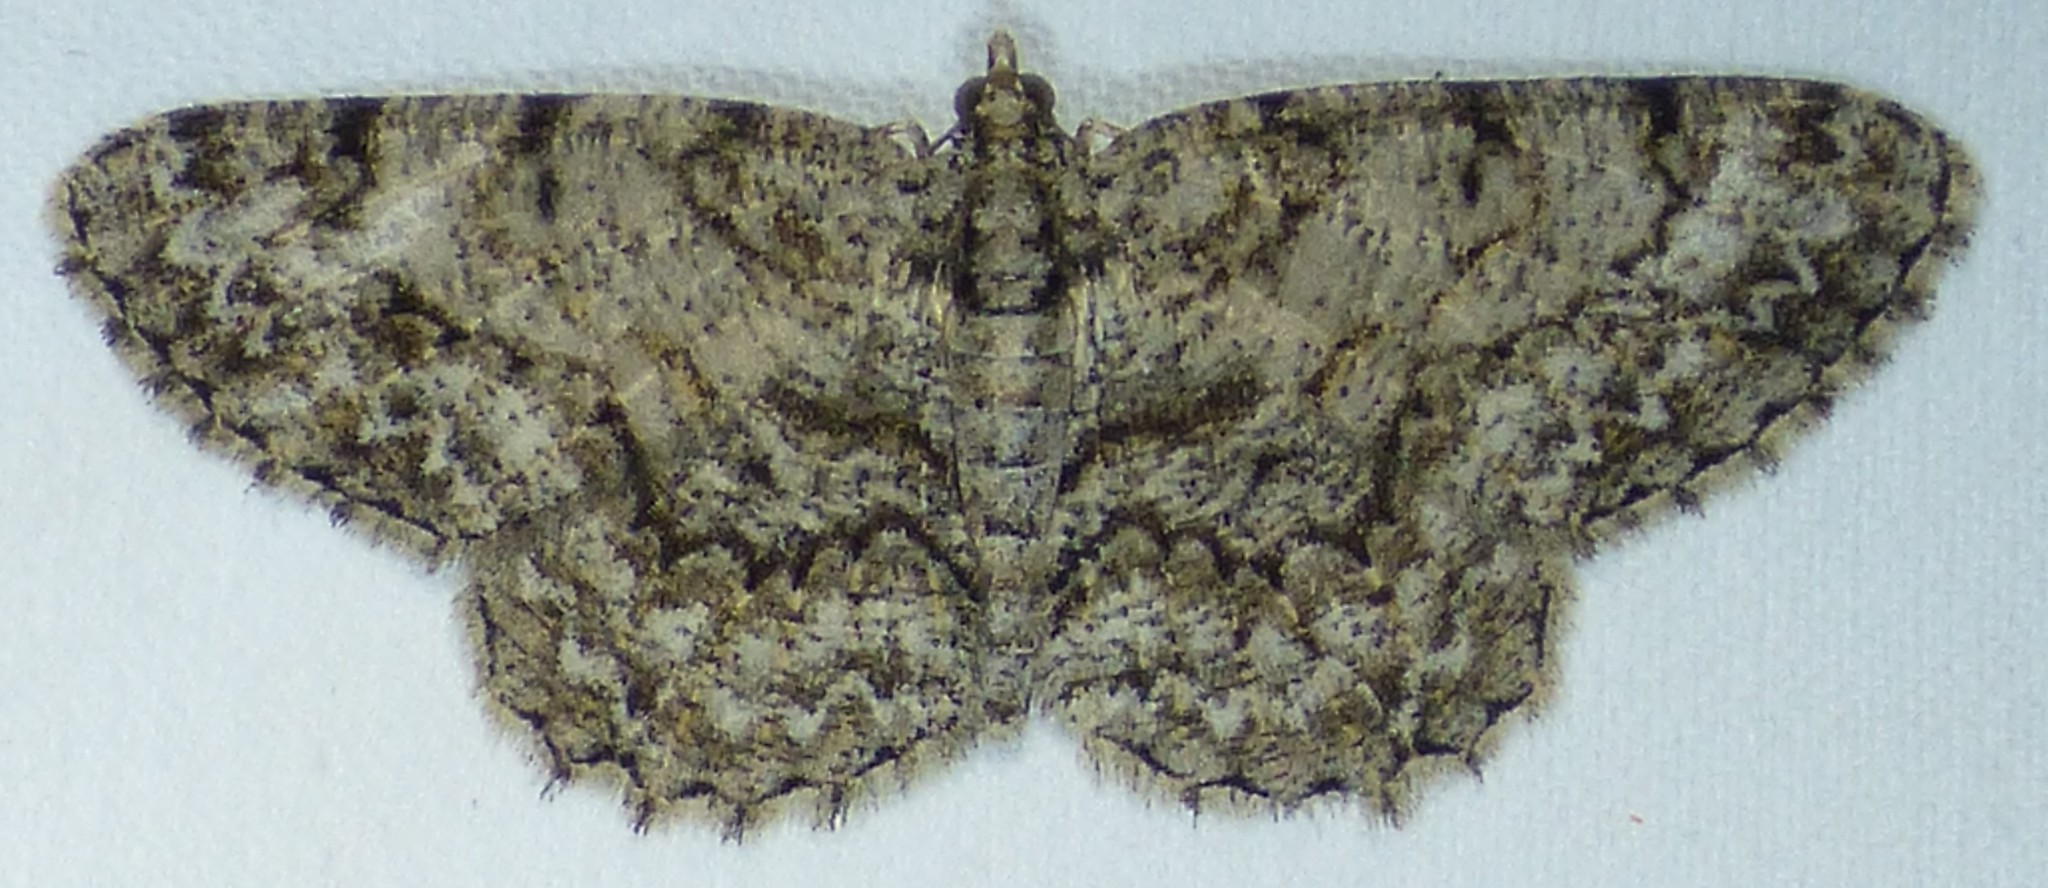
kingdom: Animalia
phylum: Arthropoda
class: Insecta
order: Lepidoptera
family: Geometridae
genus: Protoboarmia
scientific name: Protoboarmia porcelaria
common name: Porcelain gray
